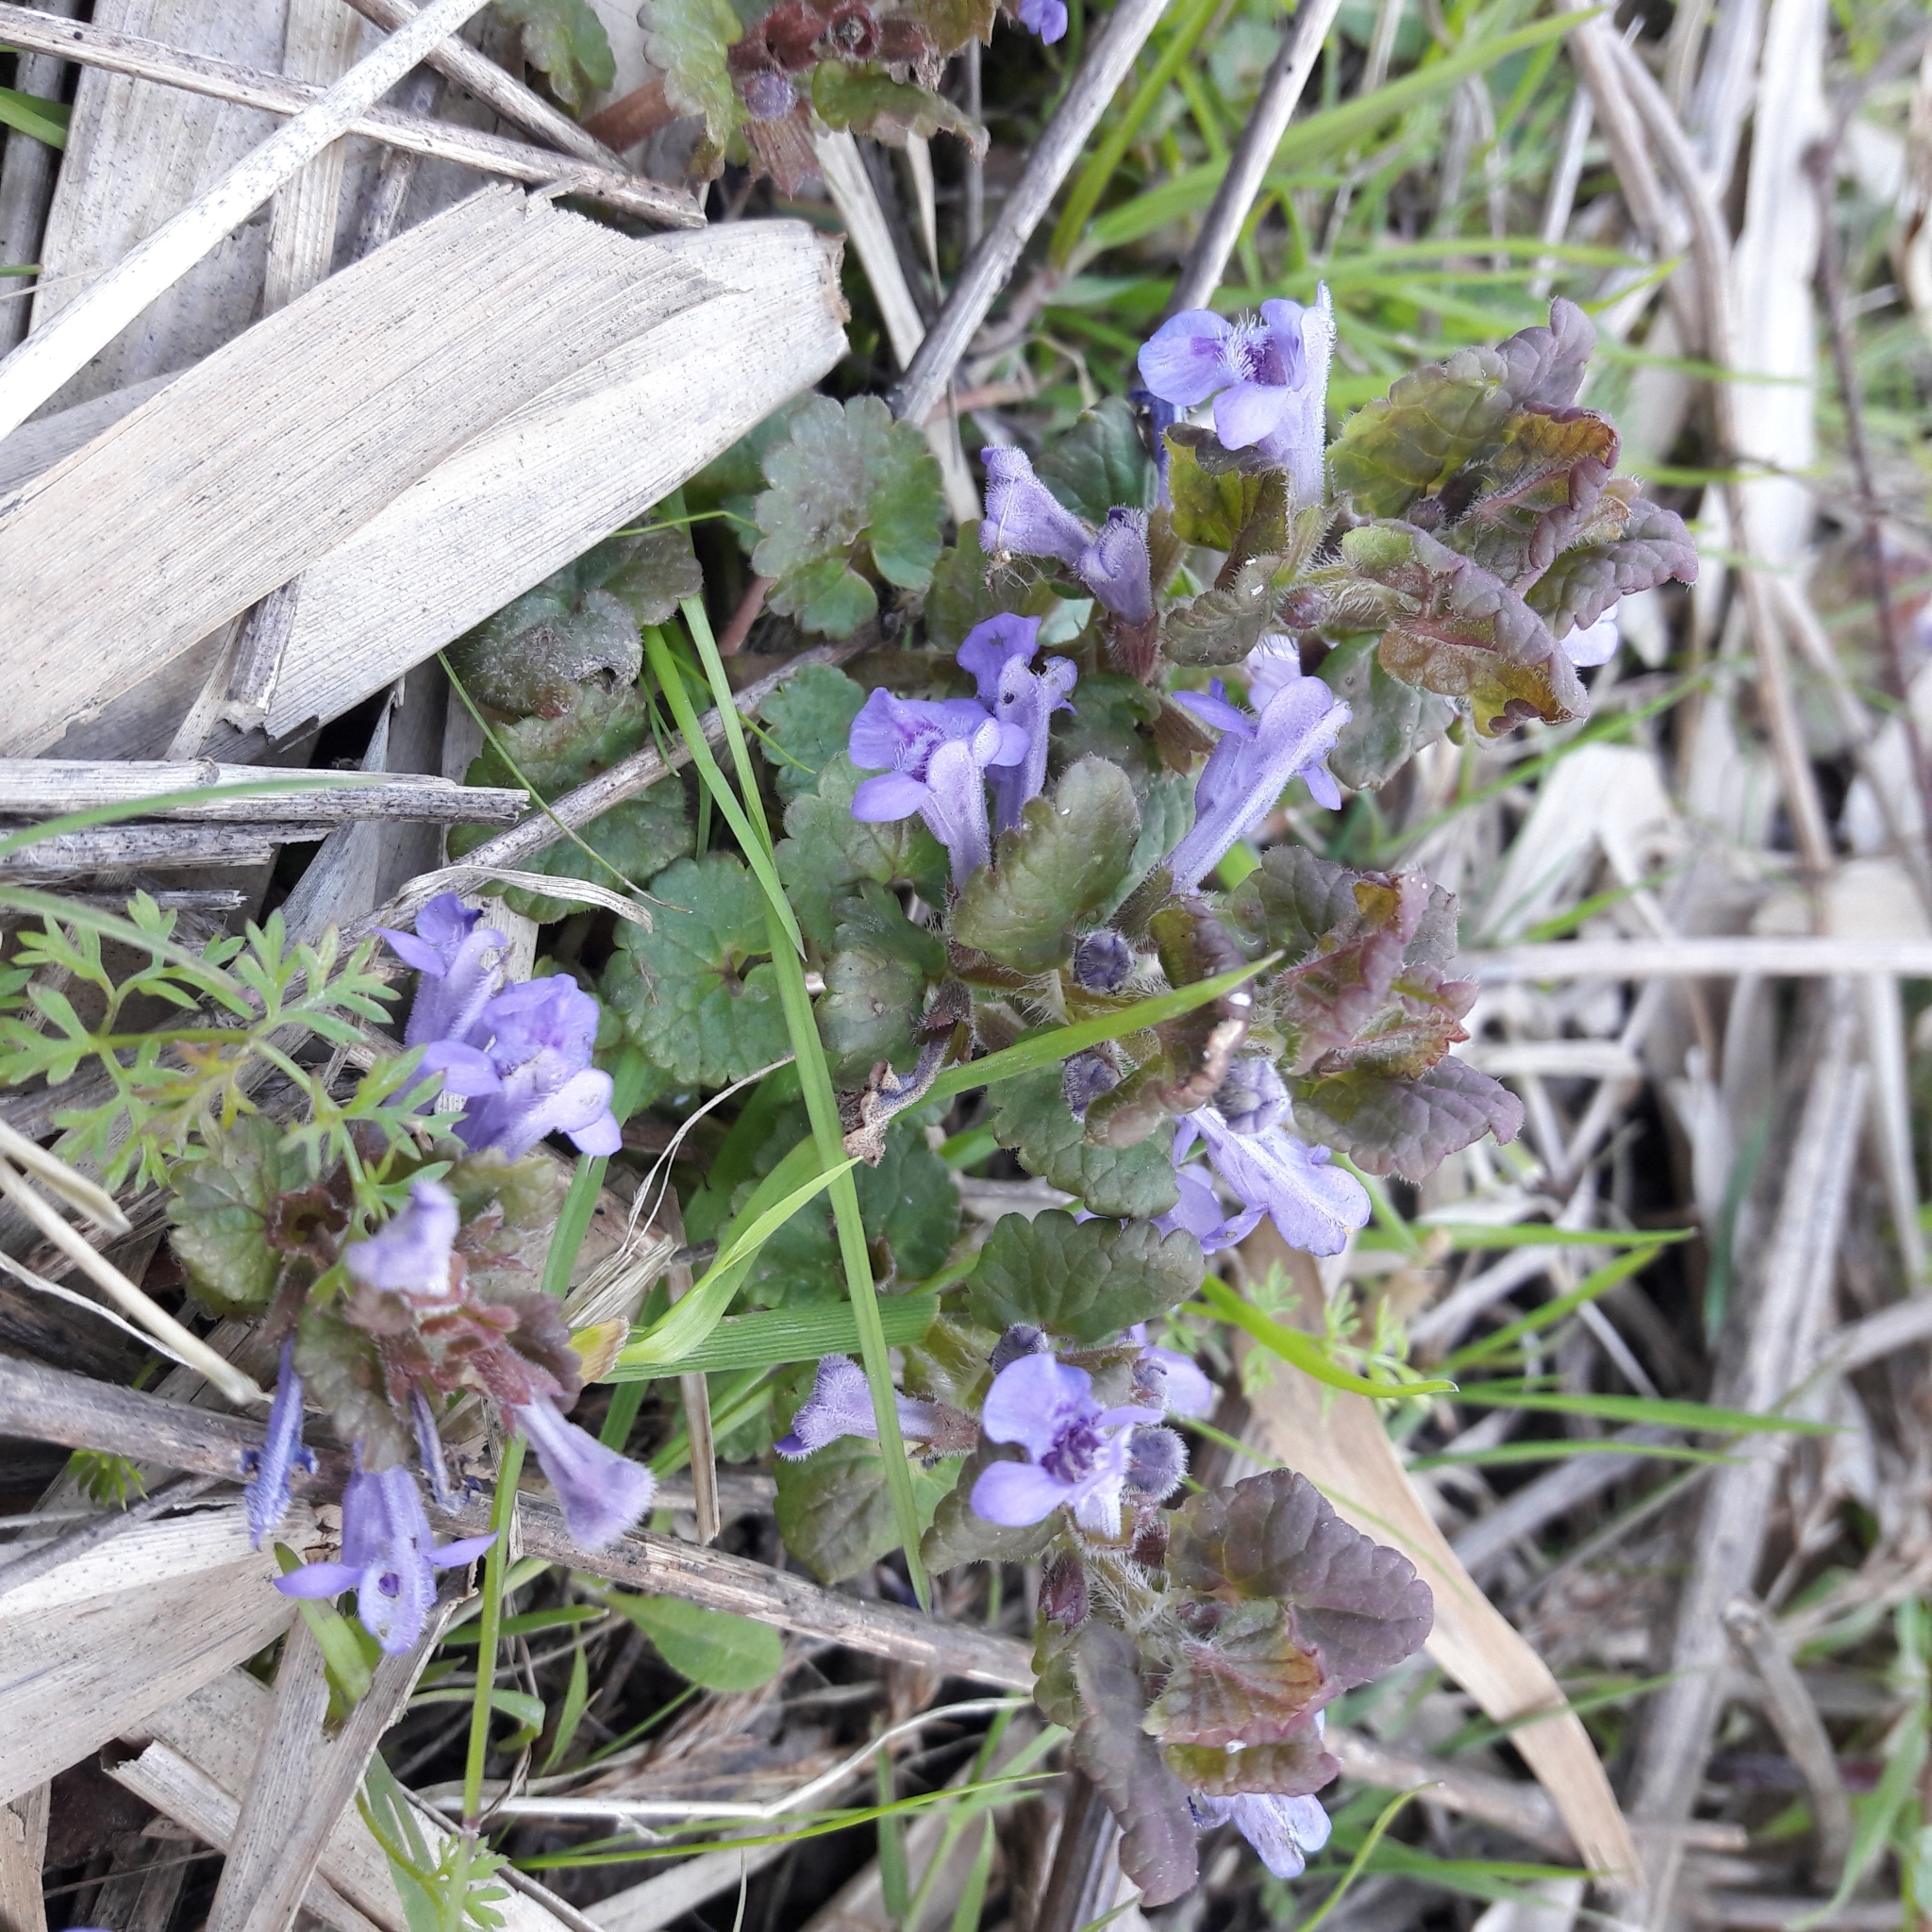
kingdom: Plantae
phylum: Tracheophyta
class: Magnoliopsida
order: Lamiales
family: Lamiaceae
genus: Glechoma
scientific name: Glechoma hederacea
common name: Ground ivy
